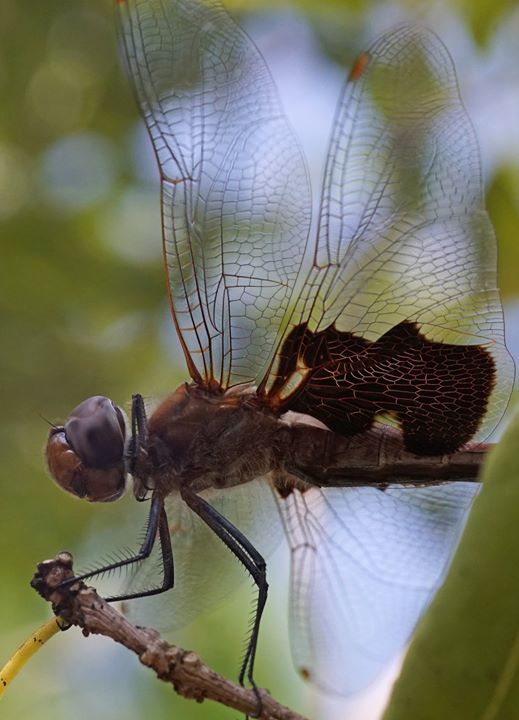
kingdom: Animalia
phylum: Arthropoda
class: Insecta
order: Odonata
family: Libellulidae
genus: Tramea
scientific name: Tramea carolina
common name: Carolina saddlebags
